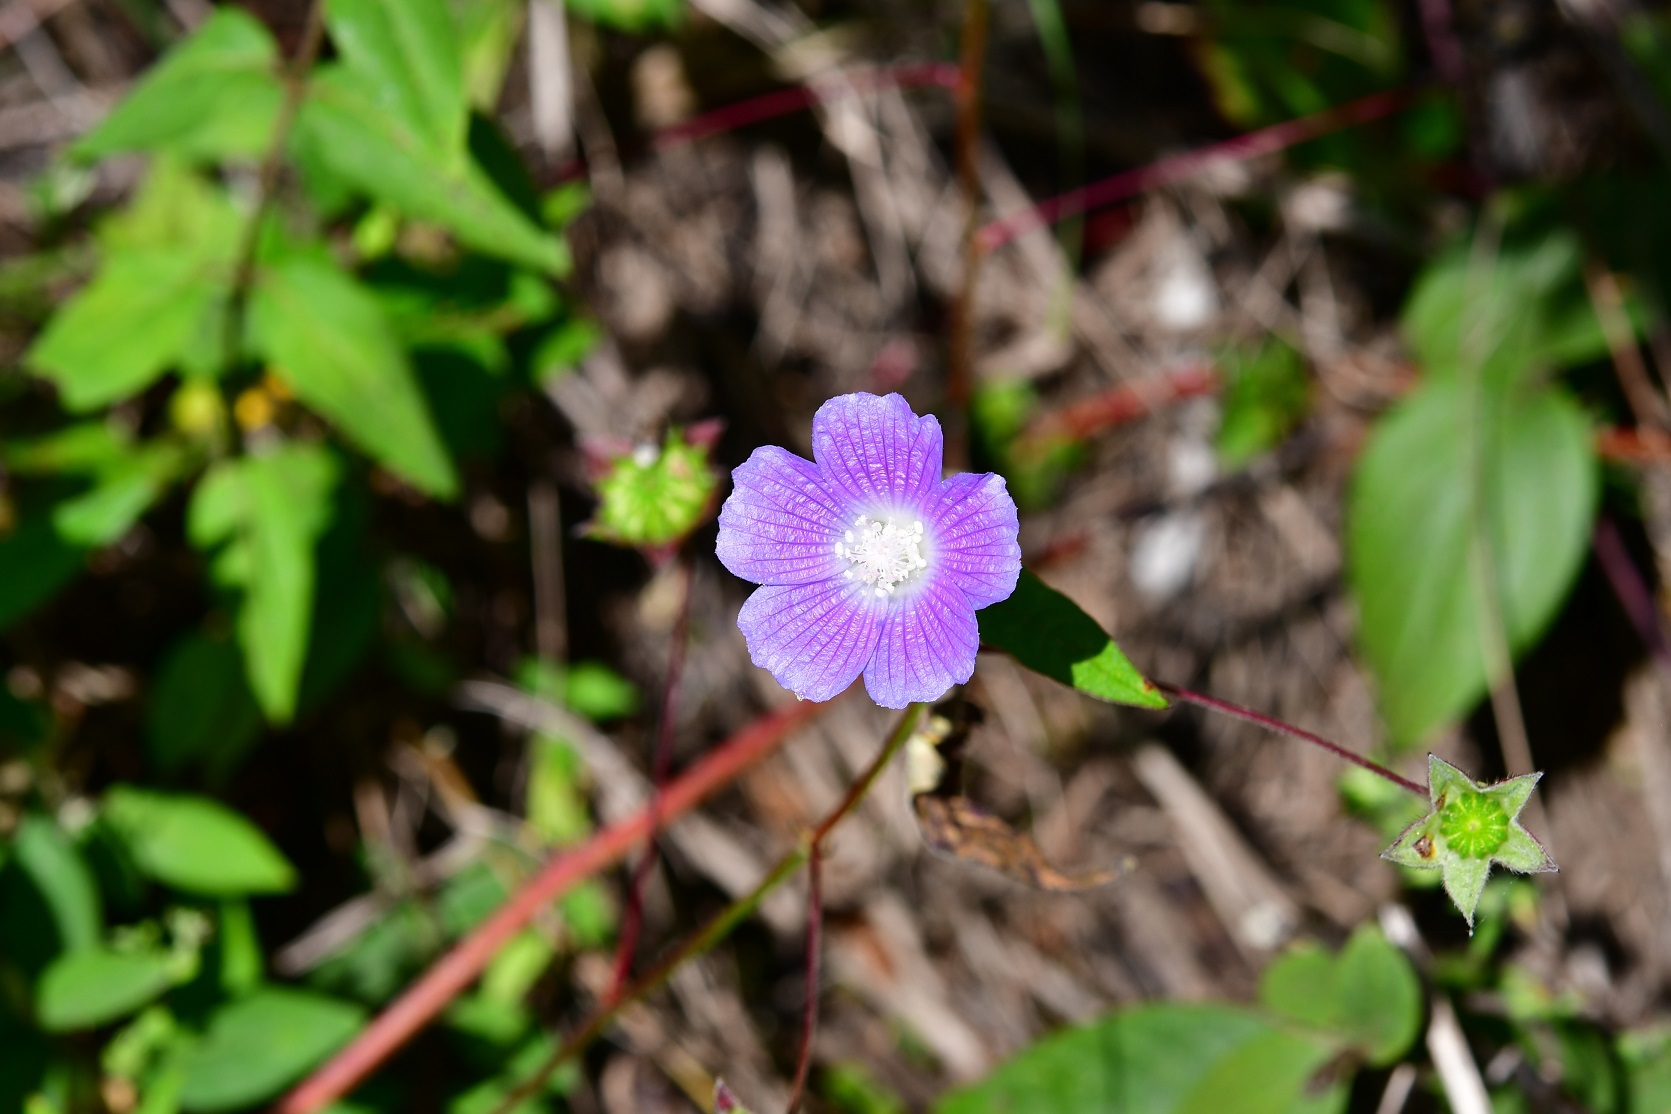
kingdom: Plantae
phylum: Tracheophyta
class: Magnoliopsida
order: Malvales
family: Malvaceae
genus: Anoda
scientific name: Anoda cristata
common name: Spurred anoda
